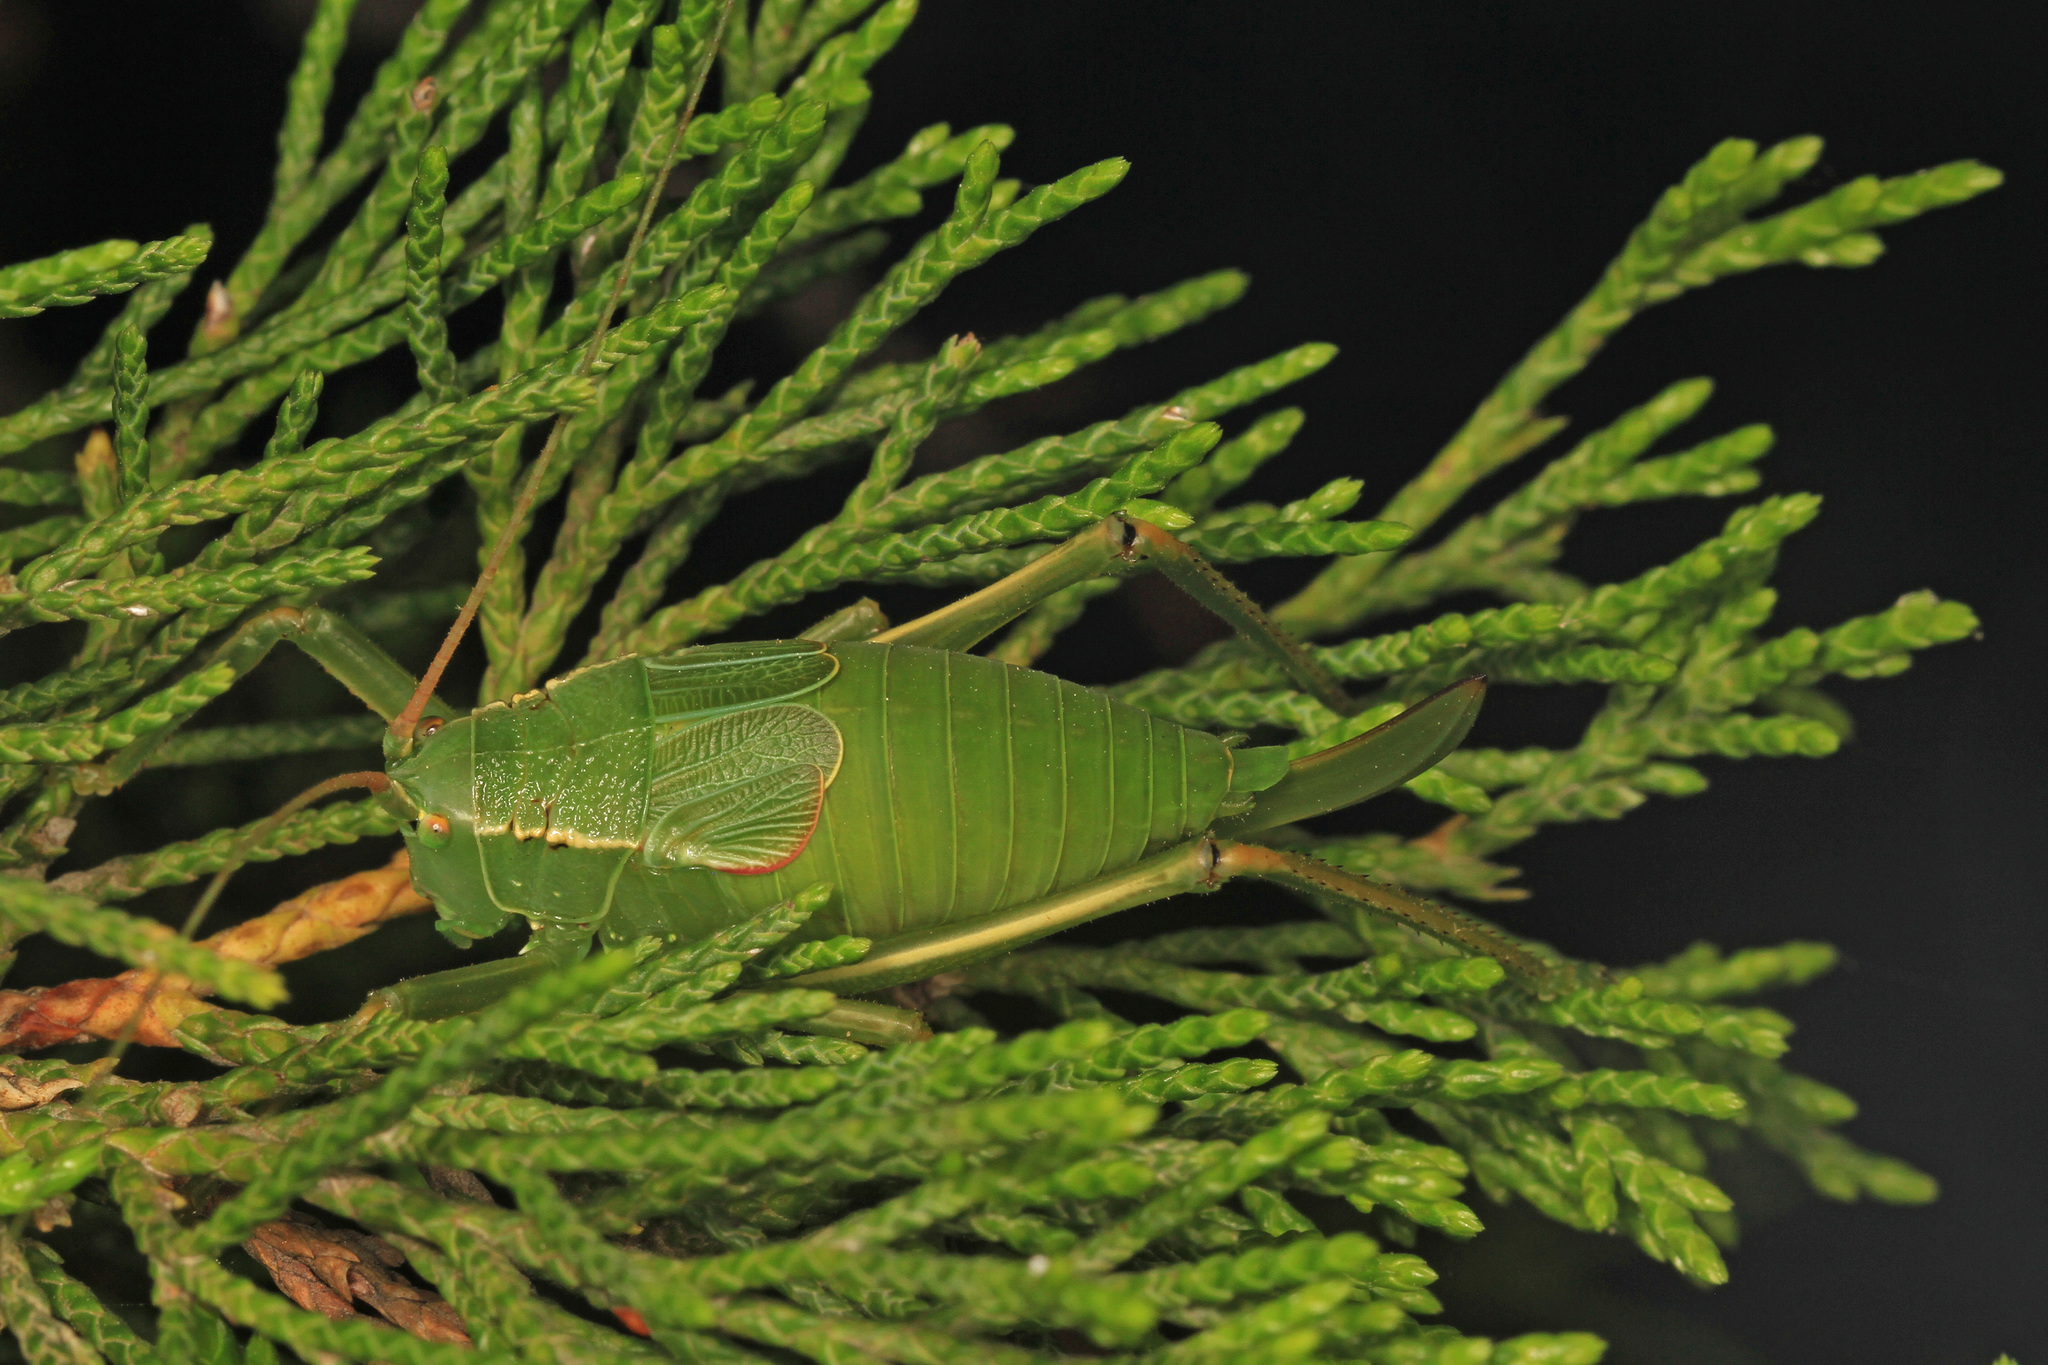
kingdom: Animalia
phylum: Arthropoda
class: Insecta
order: Orthoptera
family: Tettigoniidae
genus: Paracyrtophyllus
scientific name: Paracyrtophyllus robustus
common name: Central texas leaf katydid
